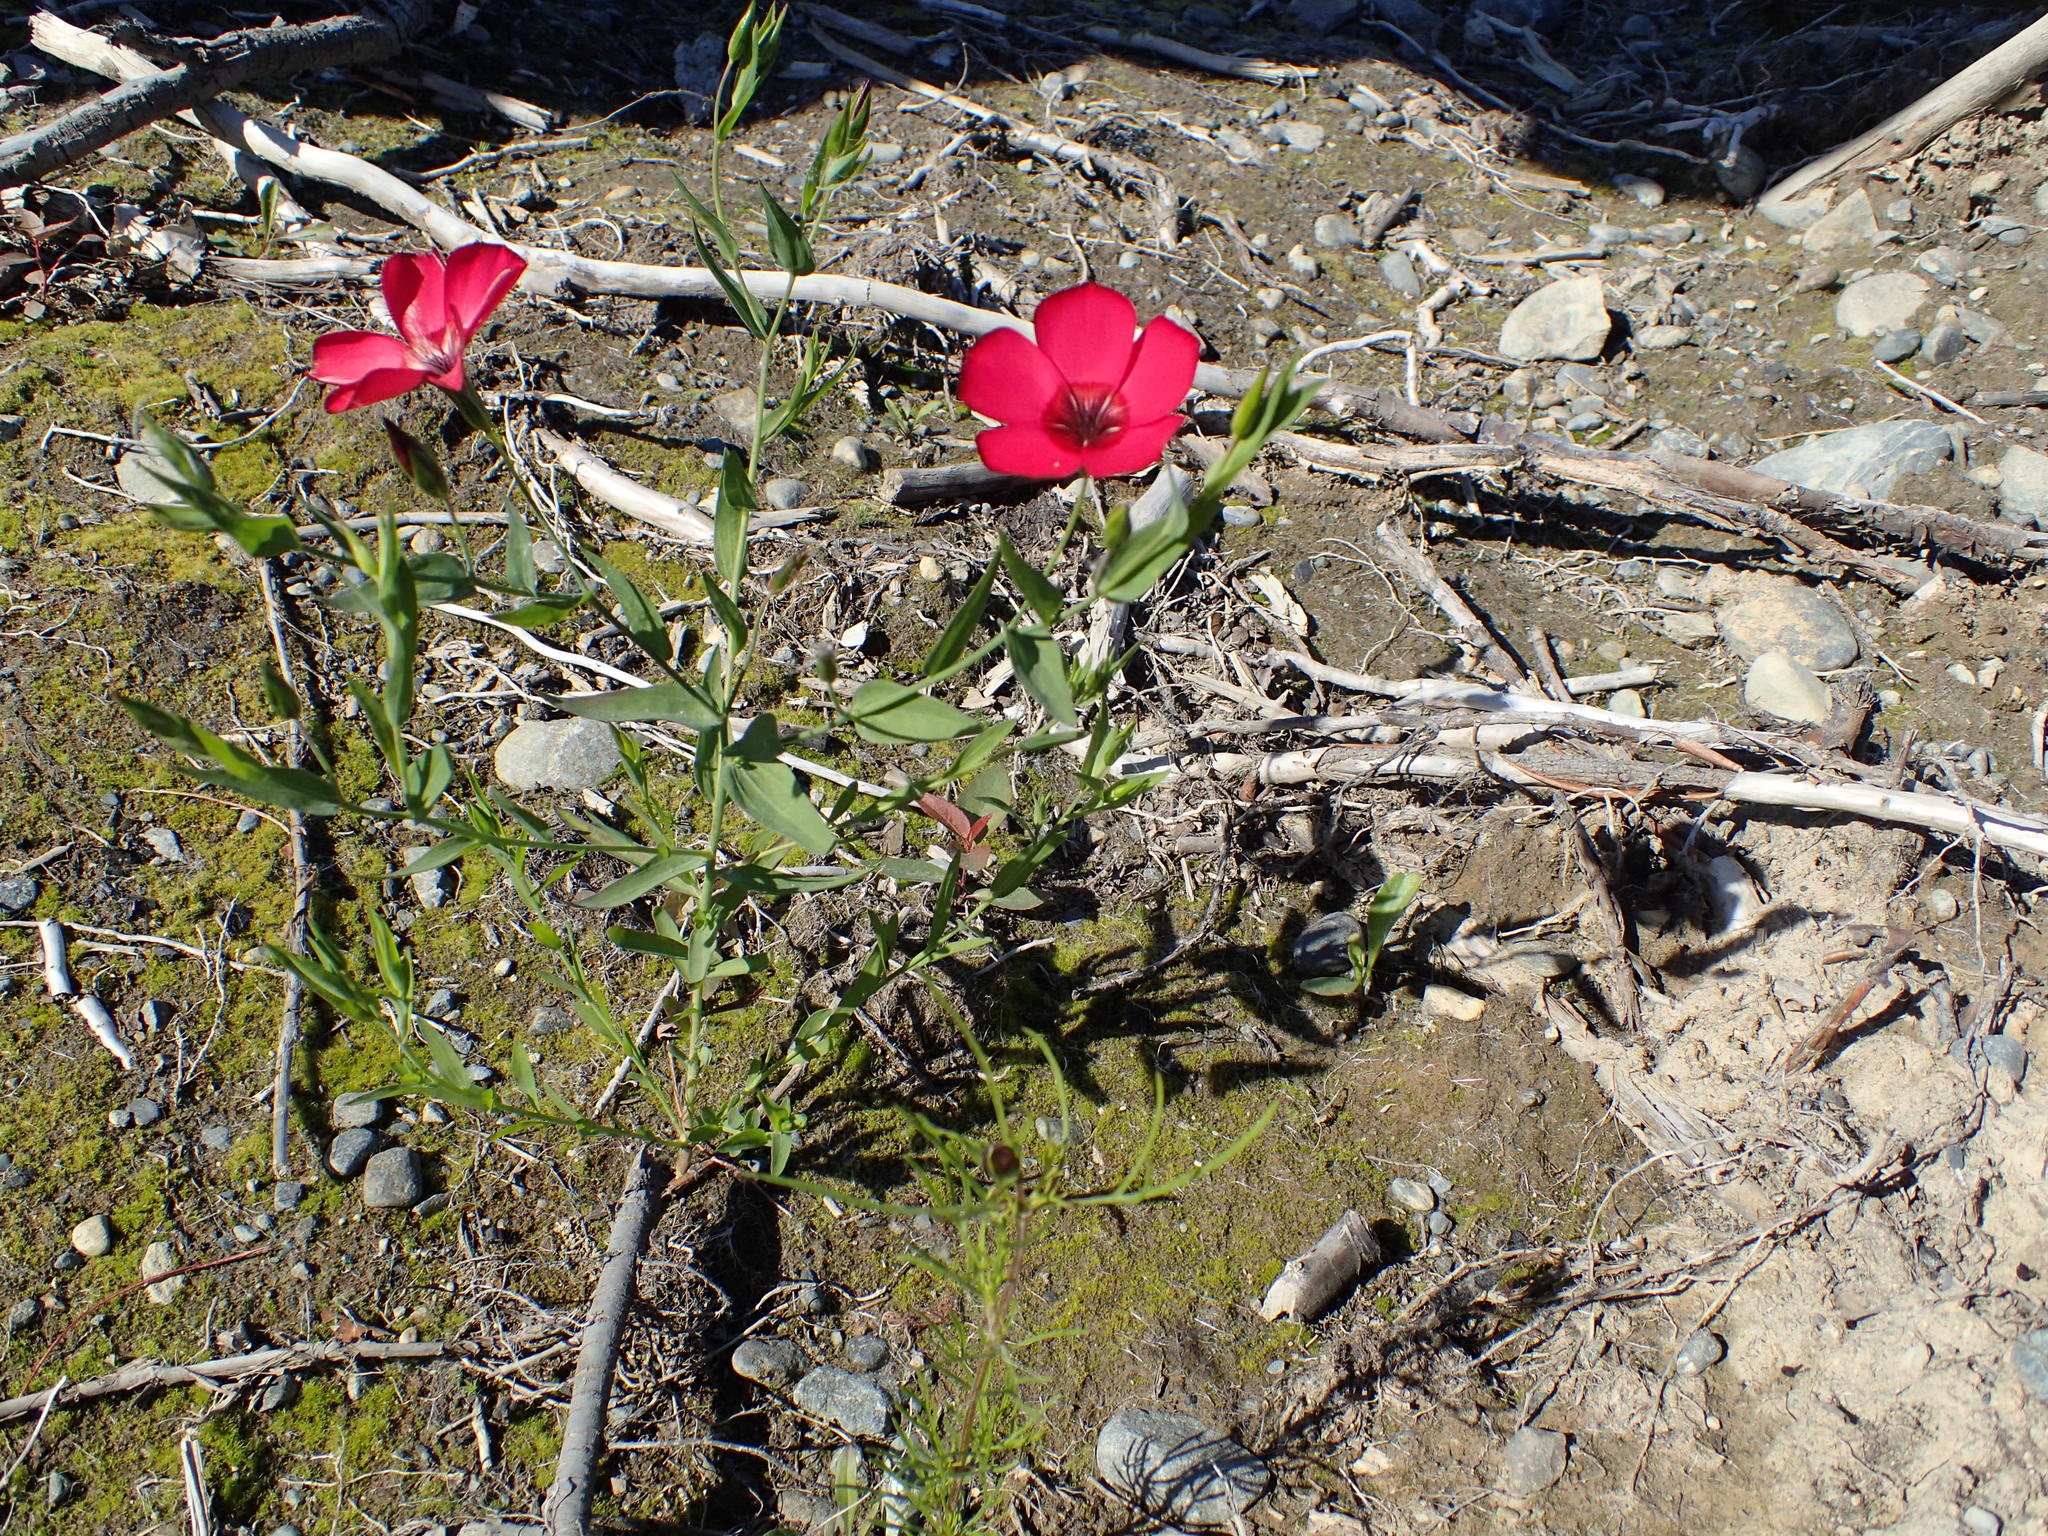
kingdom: Plantae
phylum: Tracheophyta
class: Magnoliopsida
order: Malpighiales
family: Linaceae
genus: Linum
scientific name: Linum grandiflorum
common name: Crimson flax
